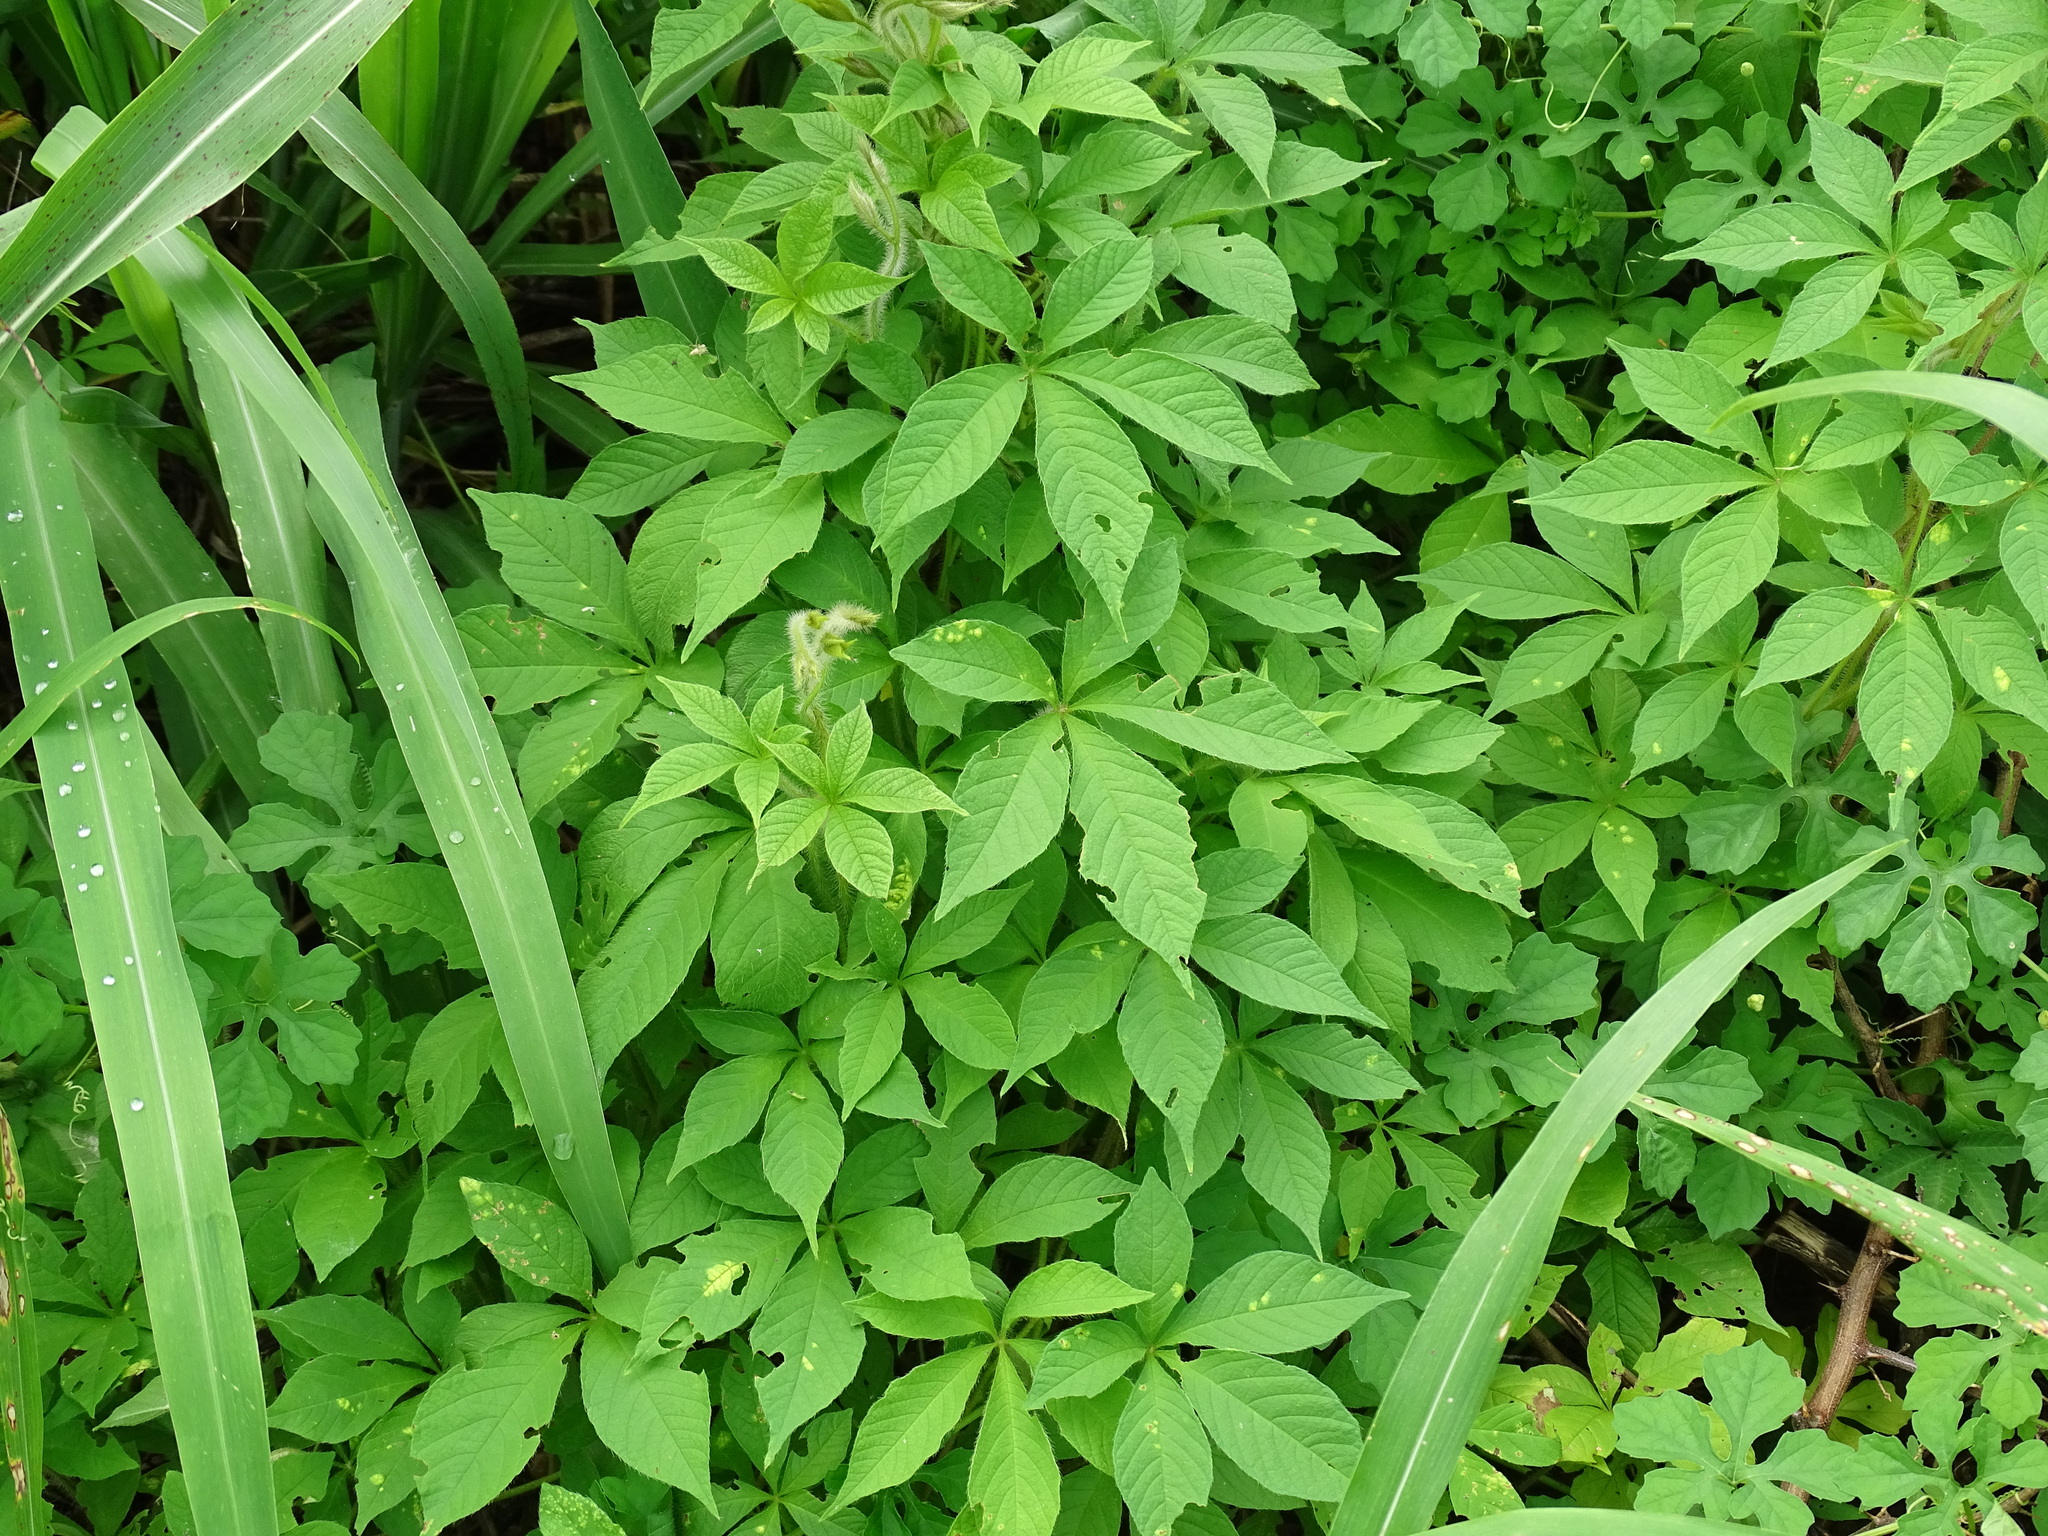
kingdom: Plantae
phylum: Tracheophyta
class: Magnoliopsida
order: Solanales
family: Convolvulaceae
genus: Distimake
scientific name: Distimake aegyptius
